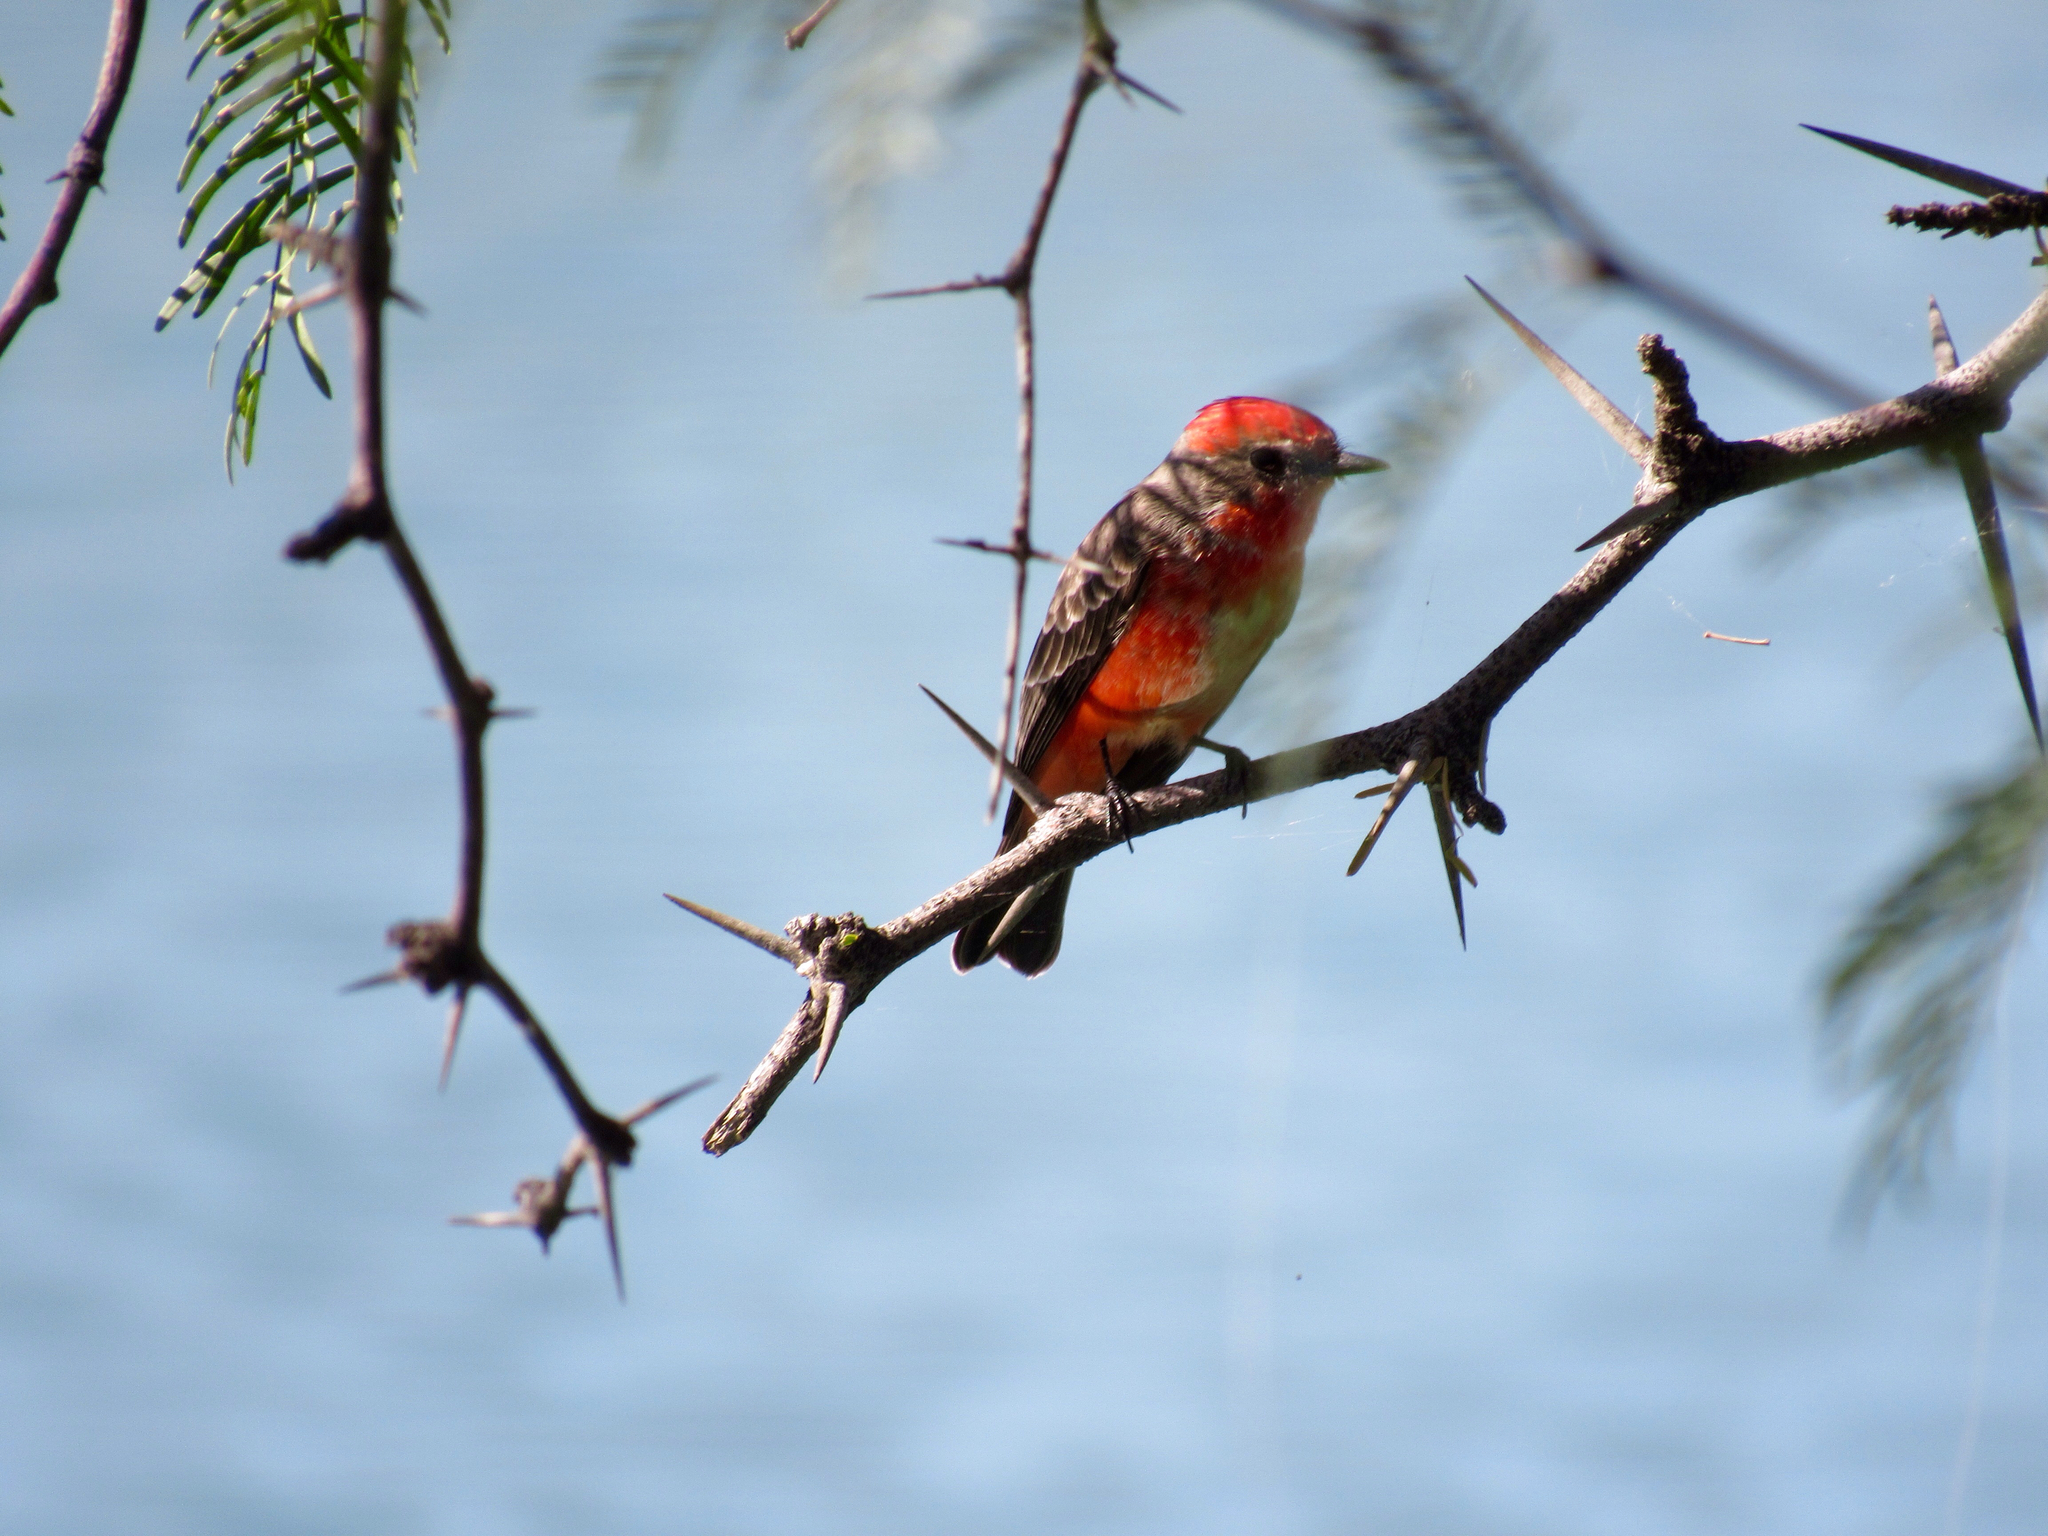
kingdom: Animalia
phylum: Chordata
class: Aves
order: Passeriformes
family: Tyrannidae
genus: Pyrocephalus
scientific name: Pyrocephalus rubinus
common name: Vermilion flycatcher
